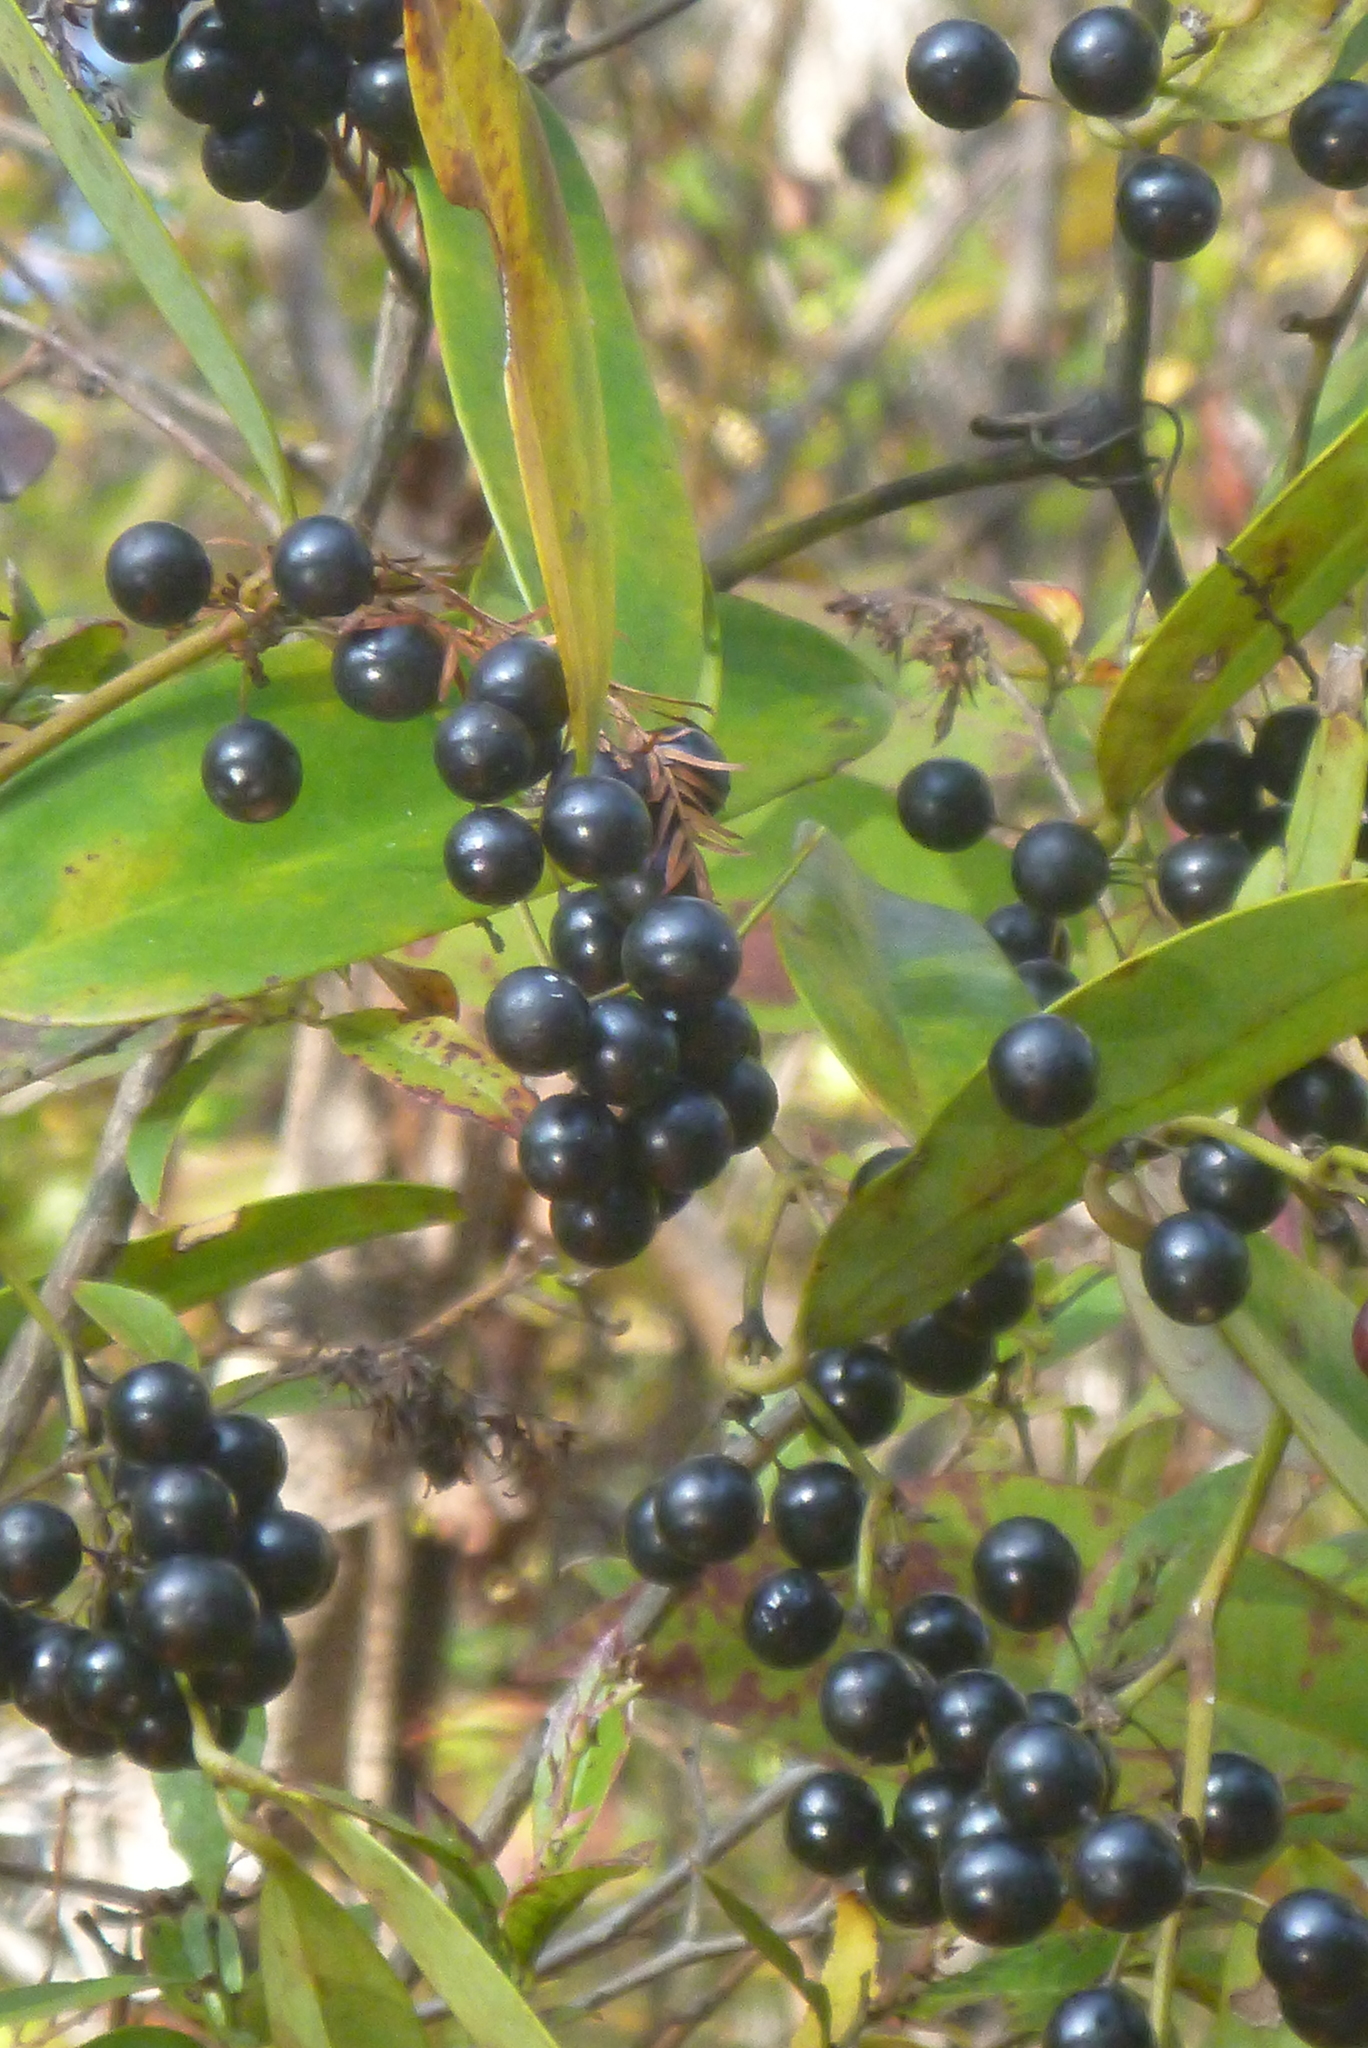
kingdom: Plantae
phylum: Tracheophyta
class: Liliopsida
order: Liliales
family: Smilacaceae
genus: Smilax
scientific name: Smilax laurifolia
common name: Bamboovine
